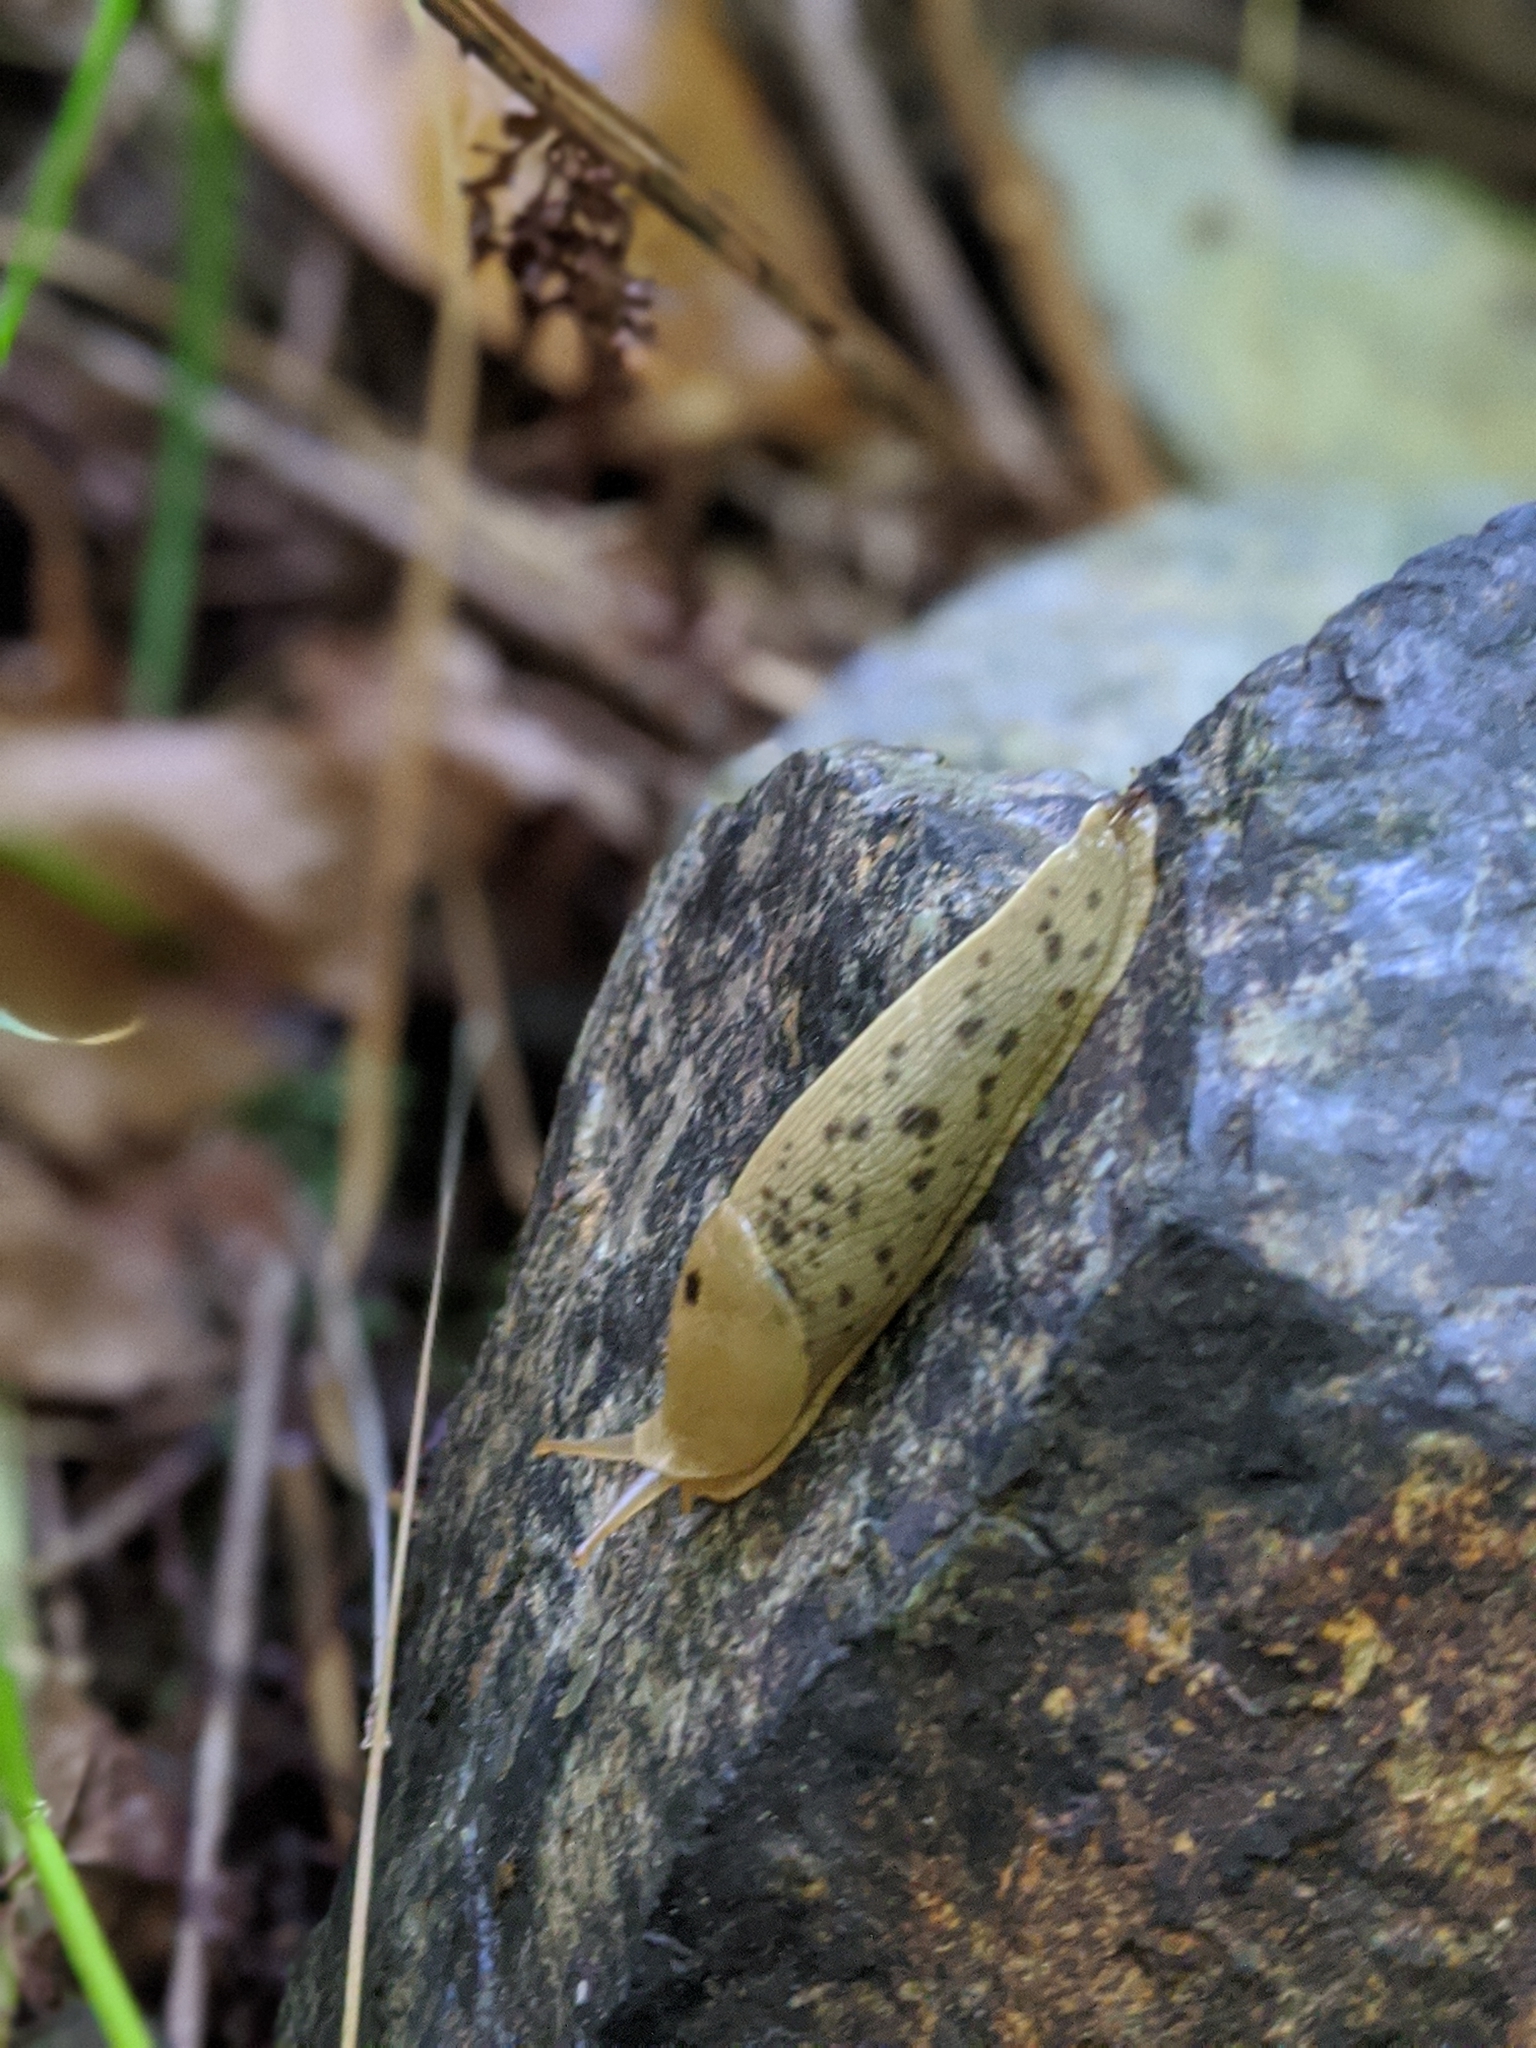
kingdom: Animalia
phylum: Mollusca
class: Gastropoda
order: Stylommatophora
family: Ariolimacidae
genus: Ariolimax
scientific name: Ariolimax columbianus
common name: Pacific banana slug
